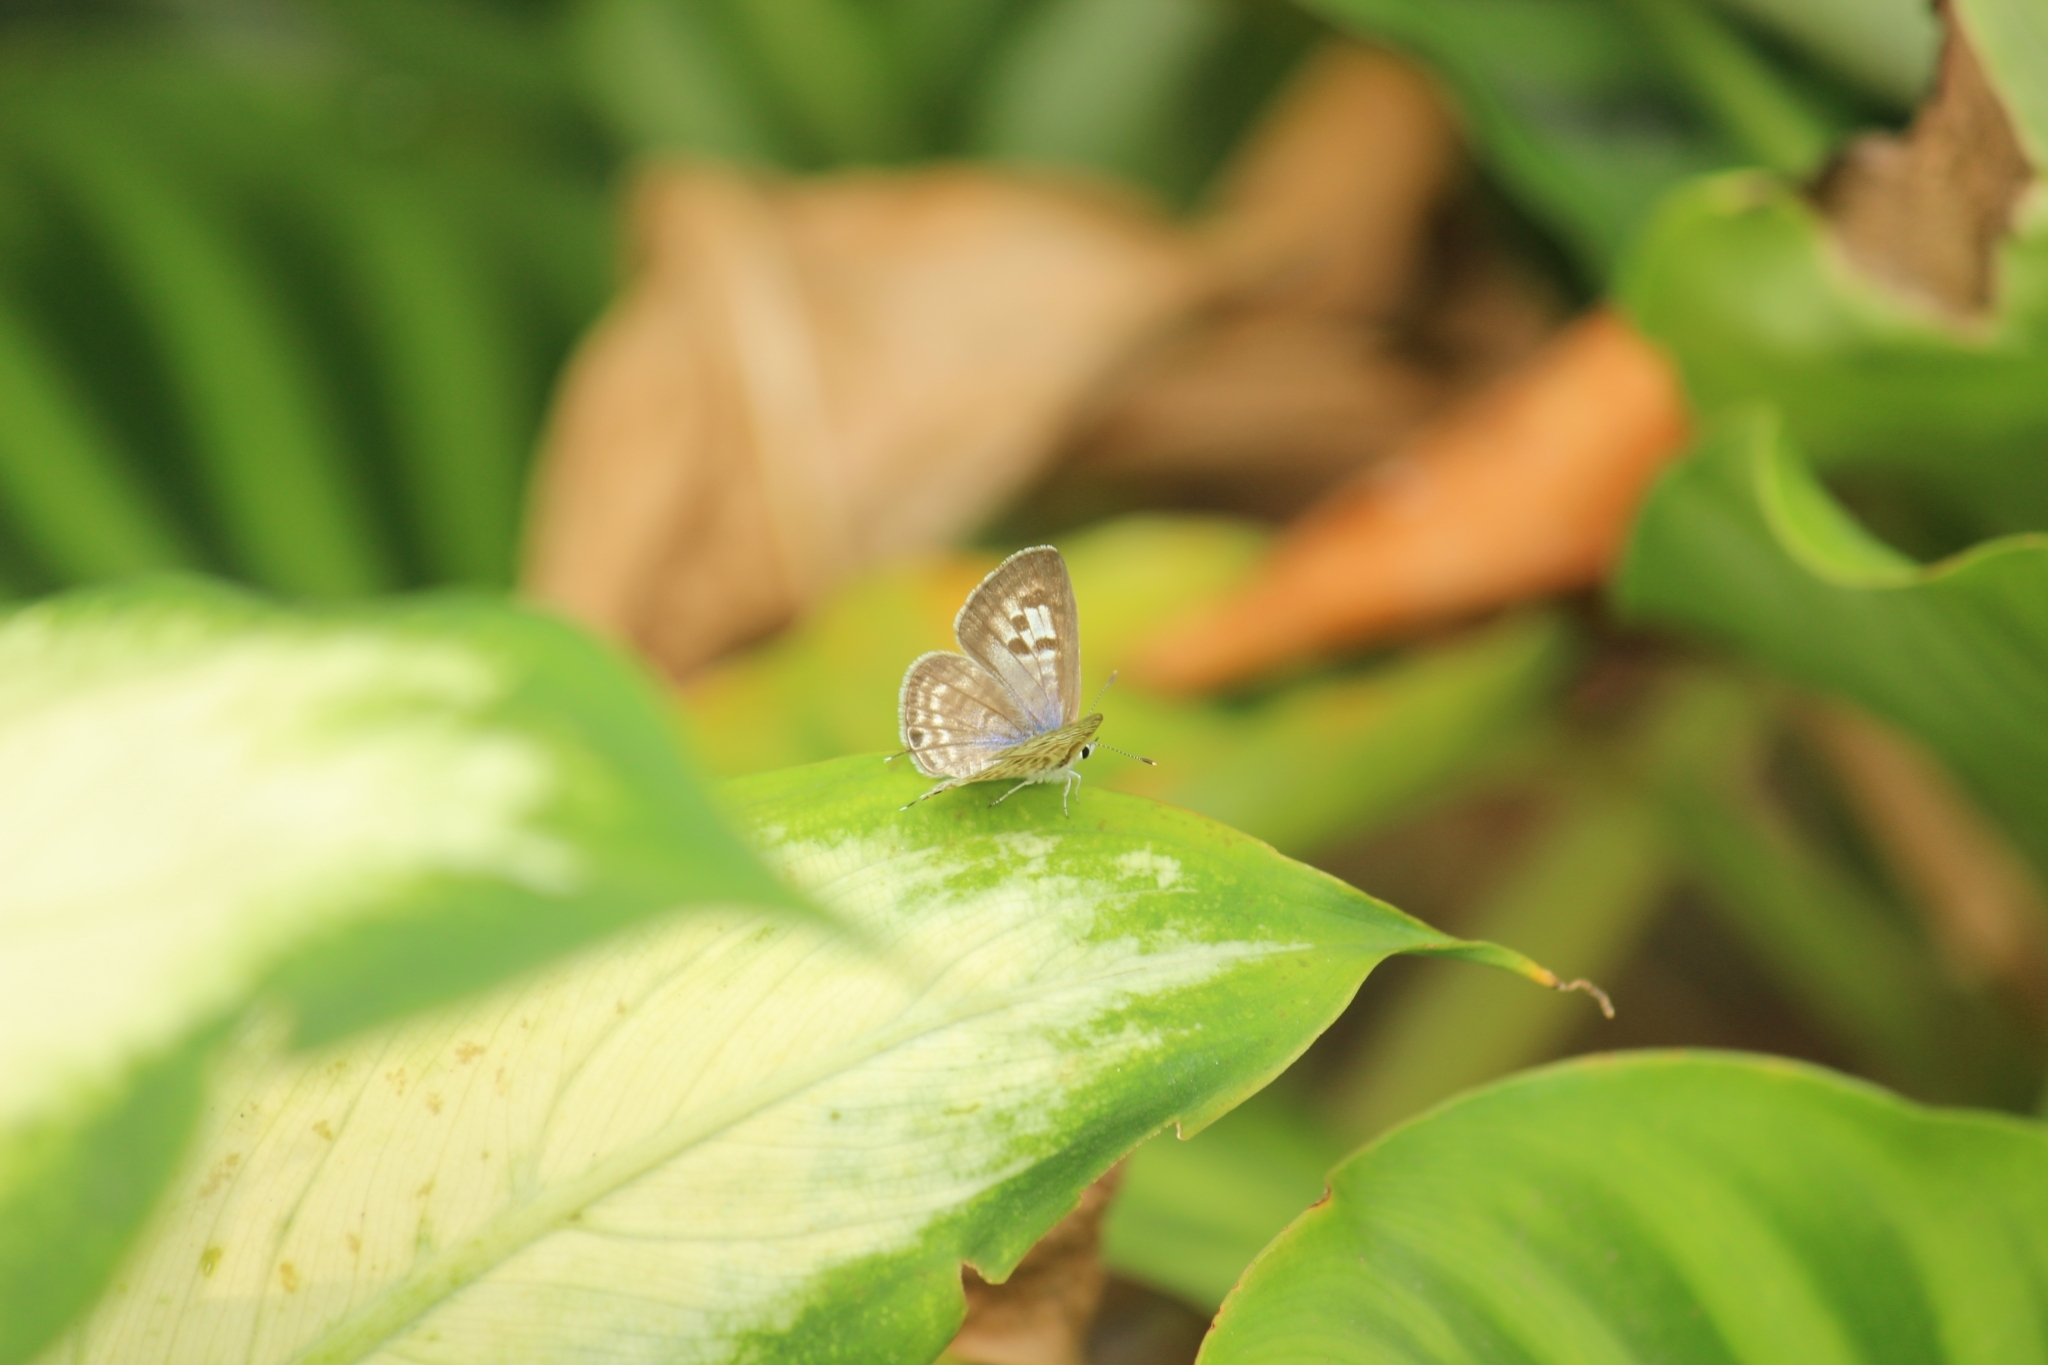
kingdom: Animalia
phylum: Arthropoda
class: Insecta
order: Lepidoptera
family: Lycaenidae
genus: Leptotes
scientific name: Leptotes plinius
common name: Zebra blue
